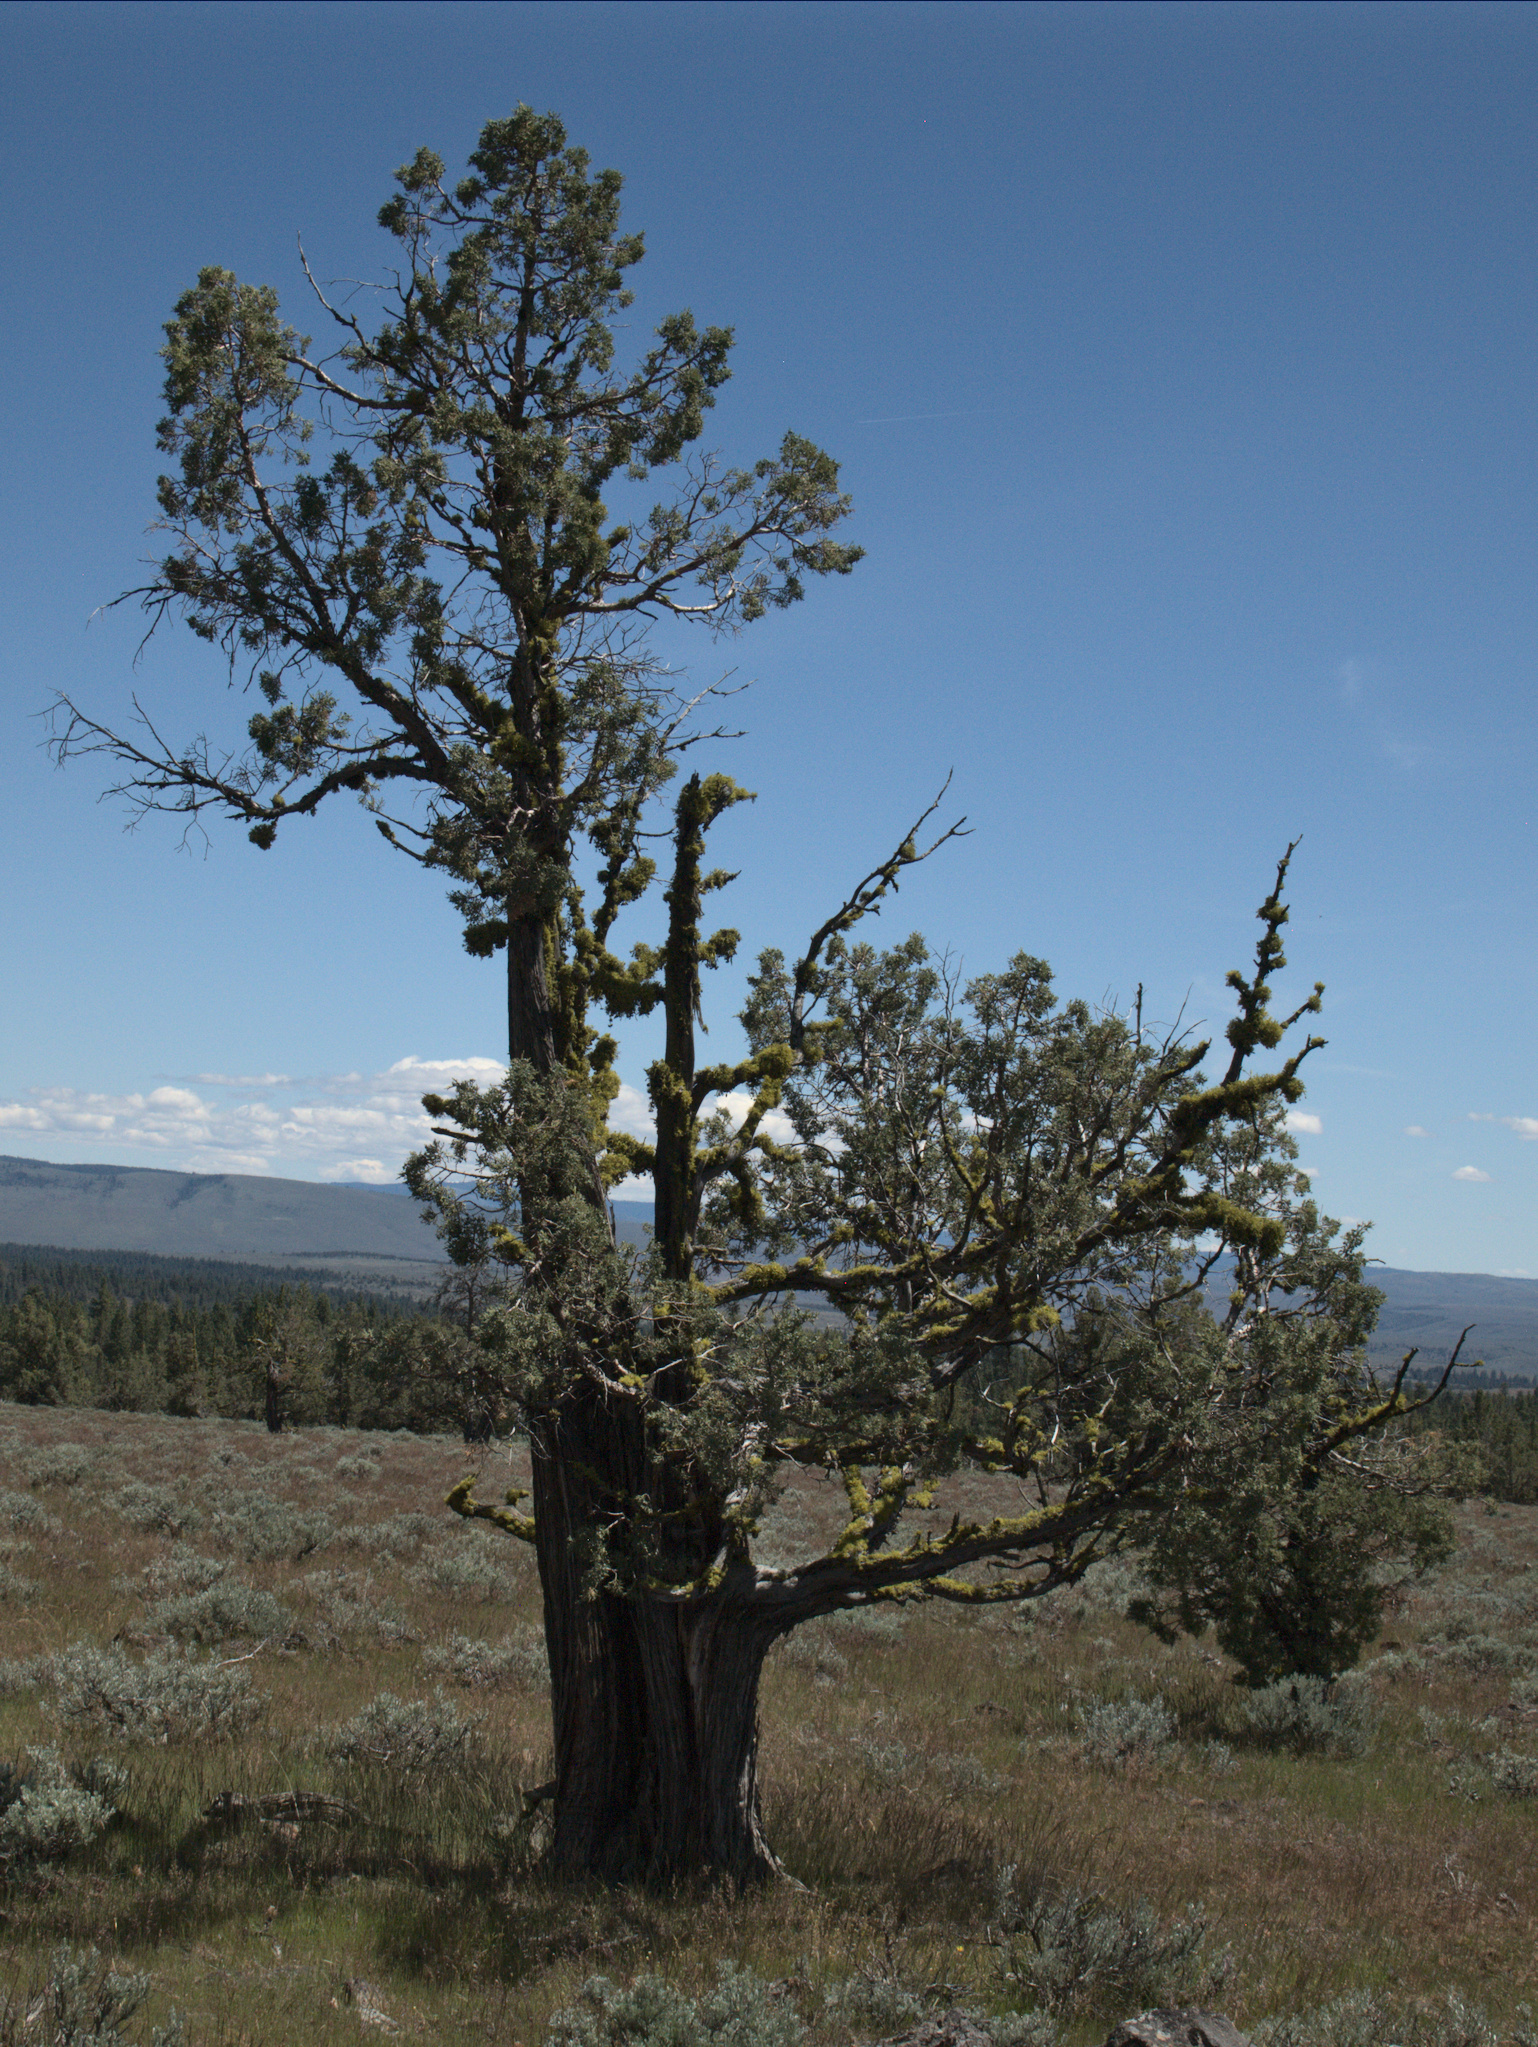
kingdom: Plantae
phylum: Tracheophyta
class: Pinopsida
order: Pinales
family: Cupressaceae
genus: Juniperus
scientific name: Juniperus occidentalis
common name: Western juniper
